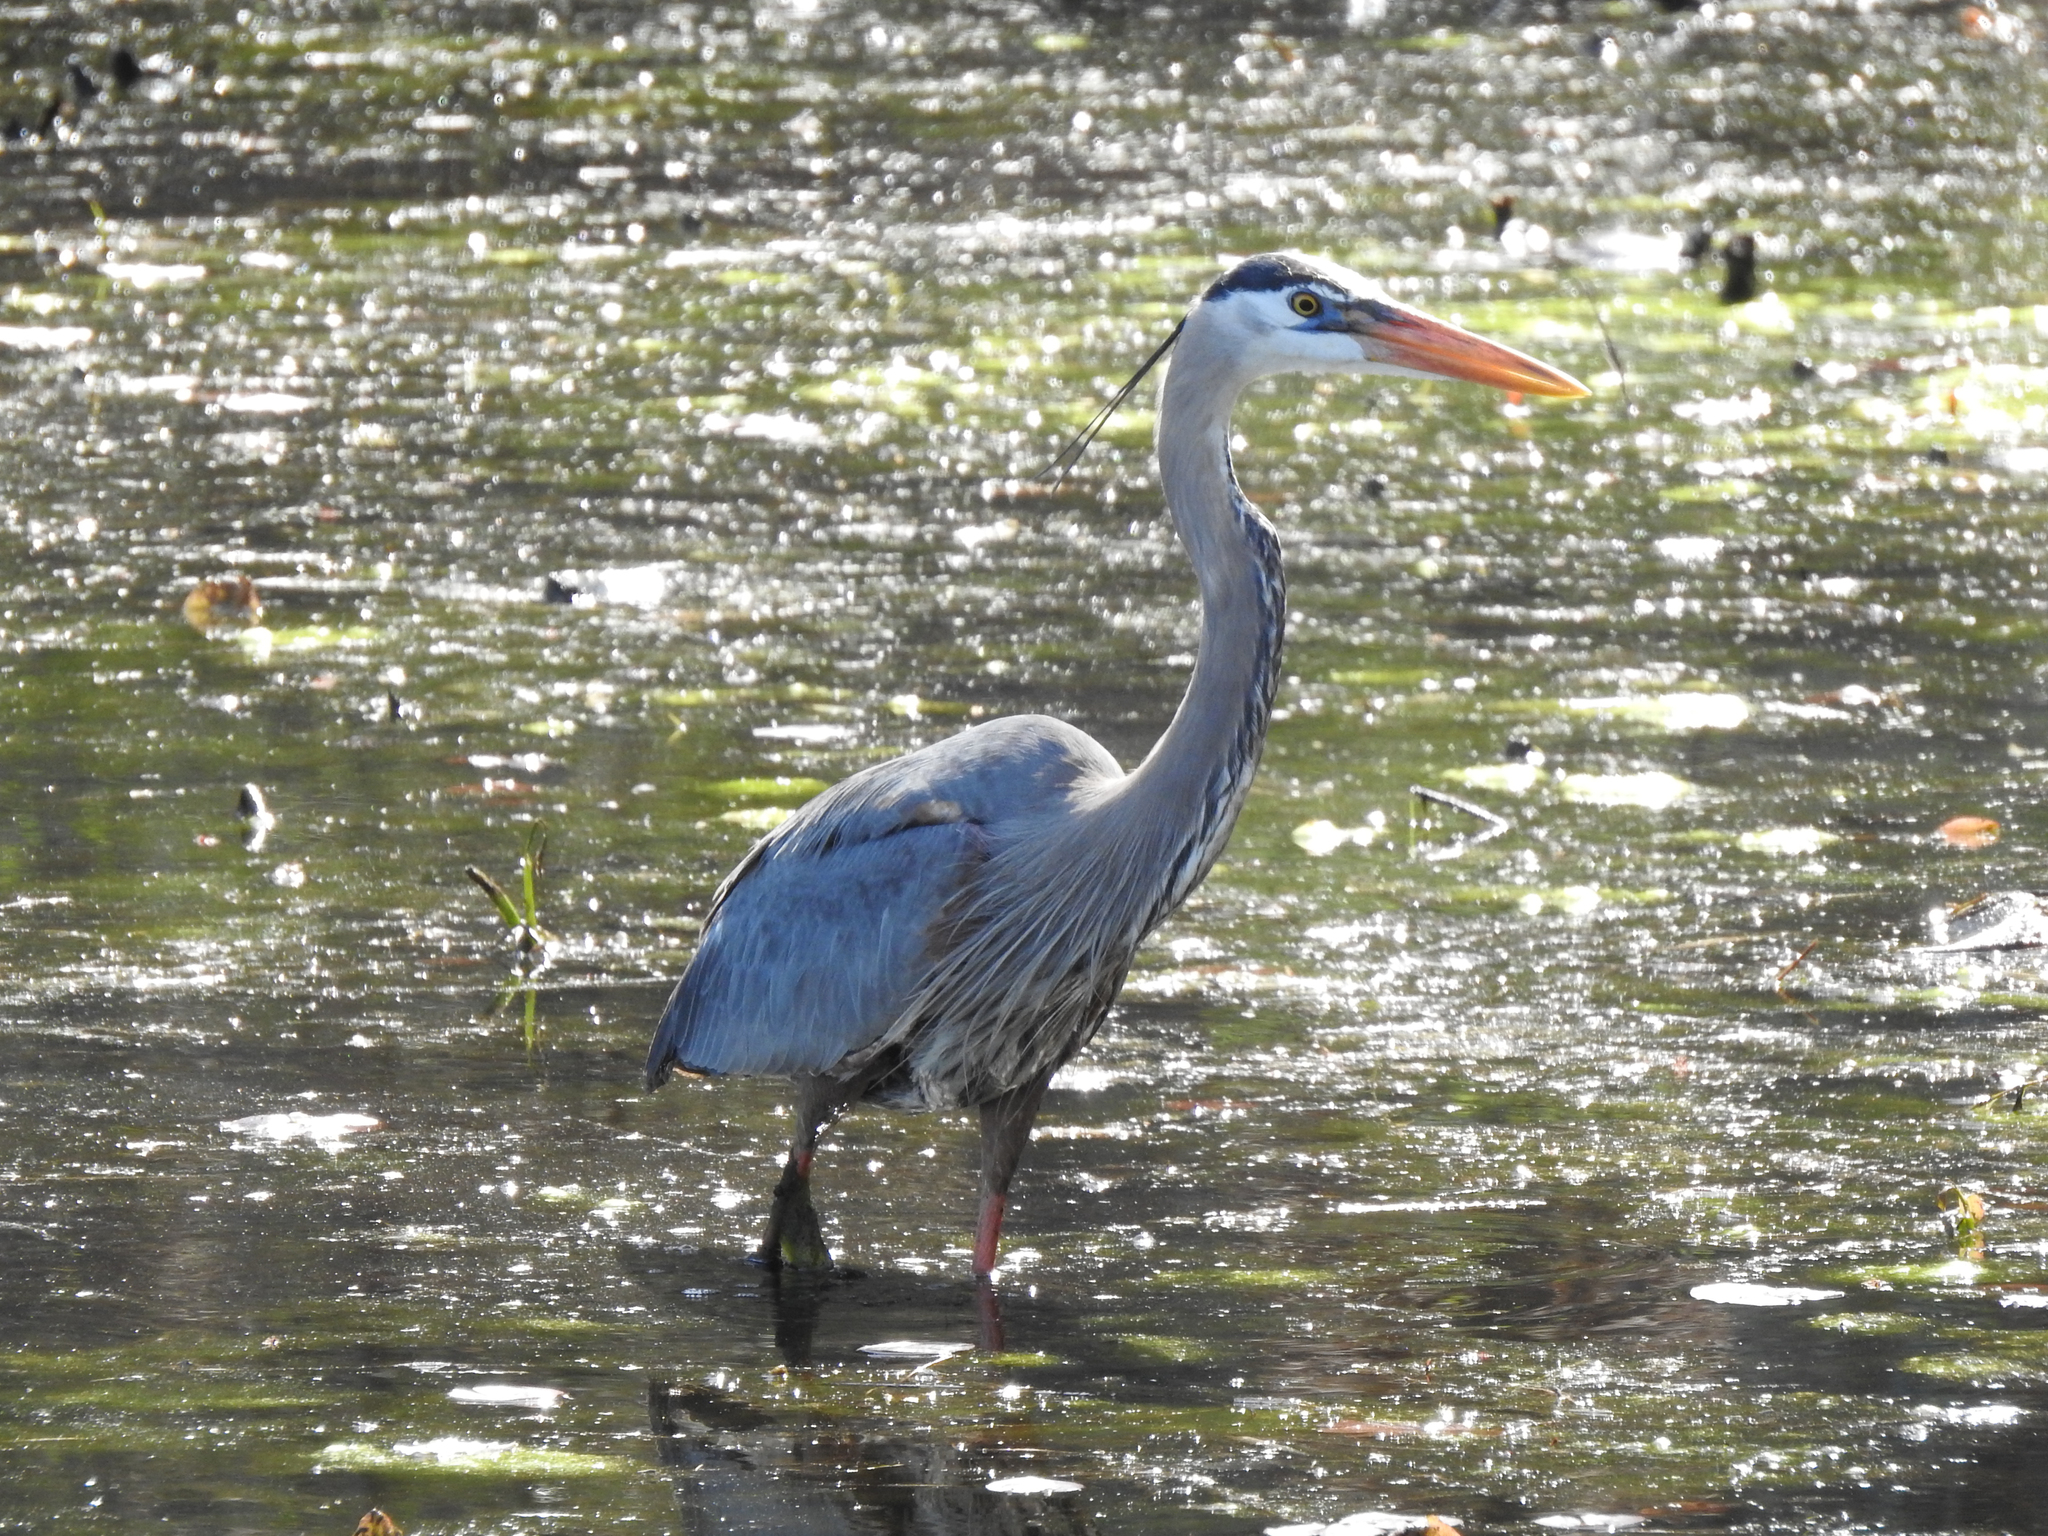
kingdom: Animalia
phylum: Chordata
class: Aves
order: Pelecaniformes
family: Ardeidae
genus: Ardea
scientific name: Ardea herodias
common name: Great blue heron
